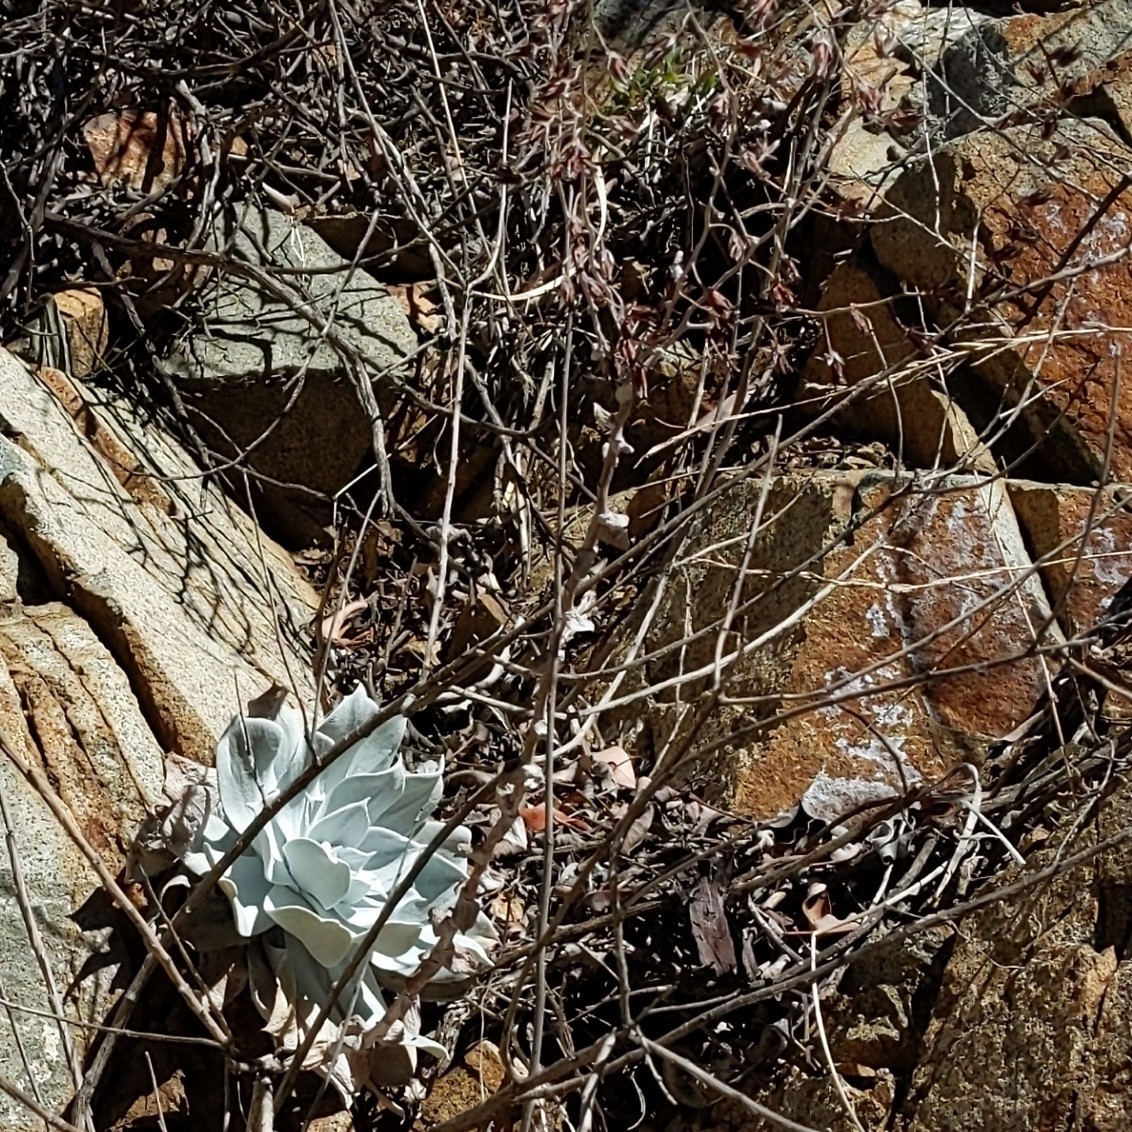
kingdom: Plantae
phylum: Tracheophyta
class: Magnoliopsida
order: Saxifragales
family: Crassulaceae
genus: Dudleya
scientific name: Dudleya pulverulenta
